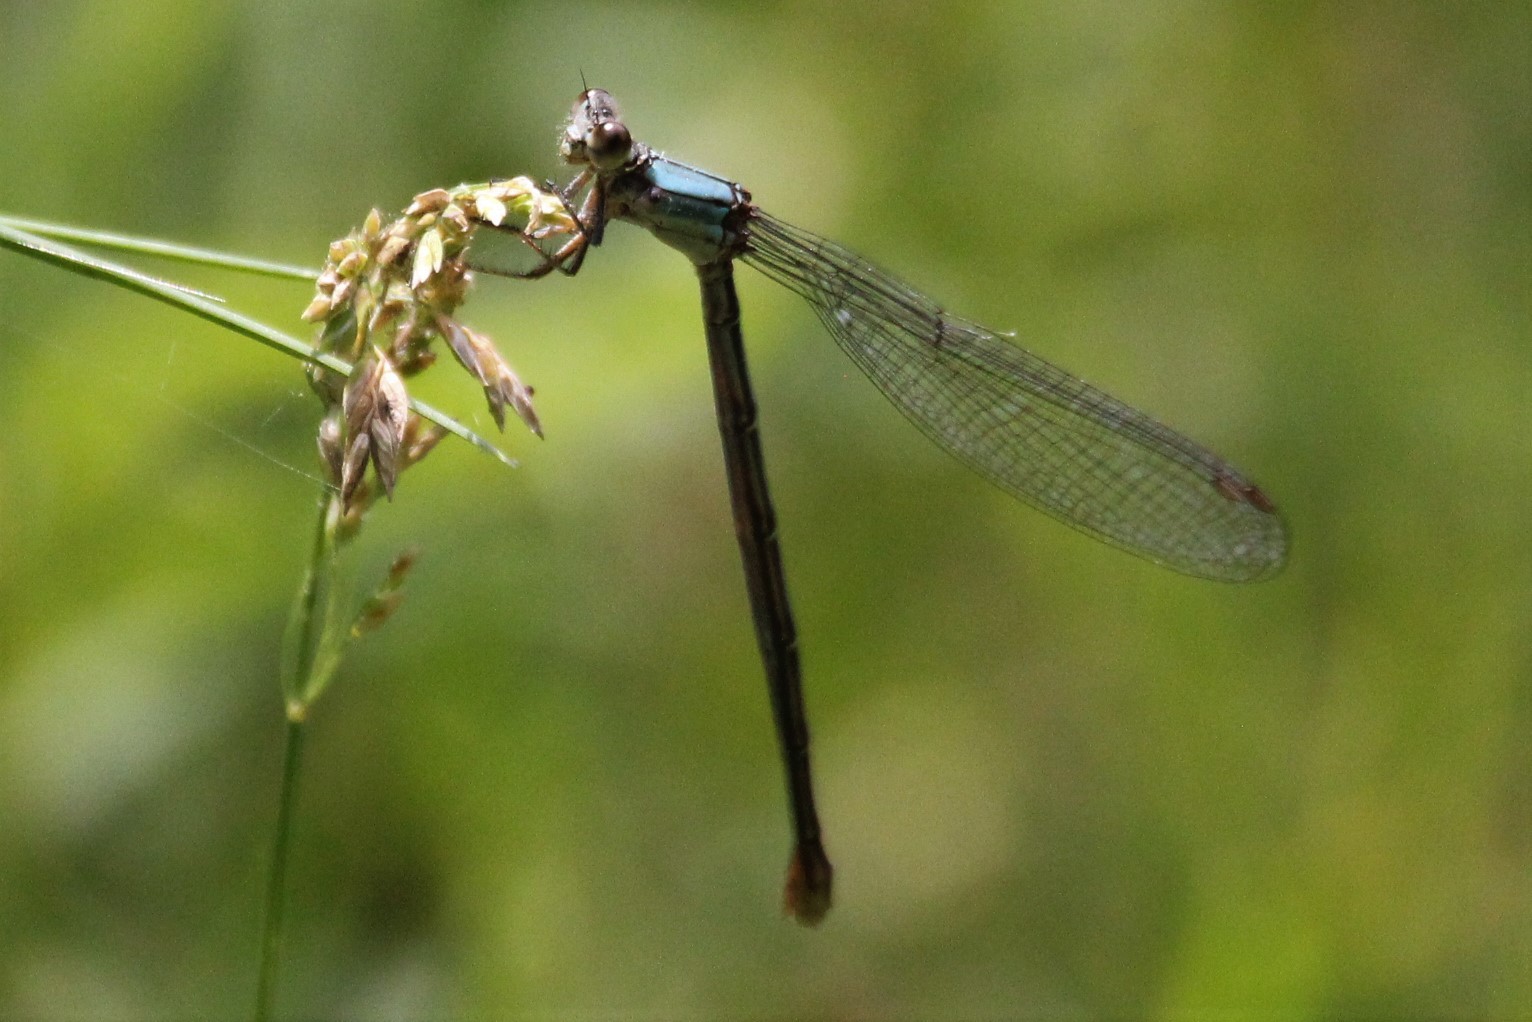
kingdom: Animalia
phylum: Arthropoda
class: Insecta
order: Odonata
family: Coenagrionidae
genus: Argia
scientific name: Argia moesta
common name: Powdered dancer
